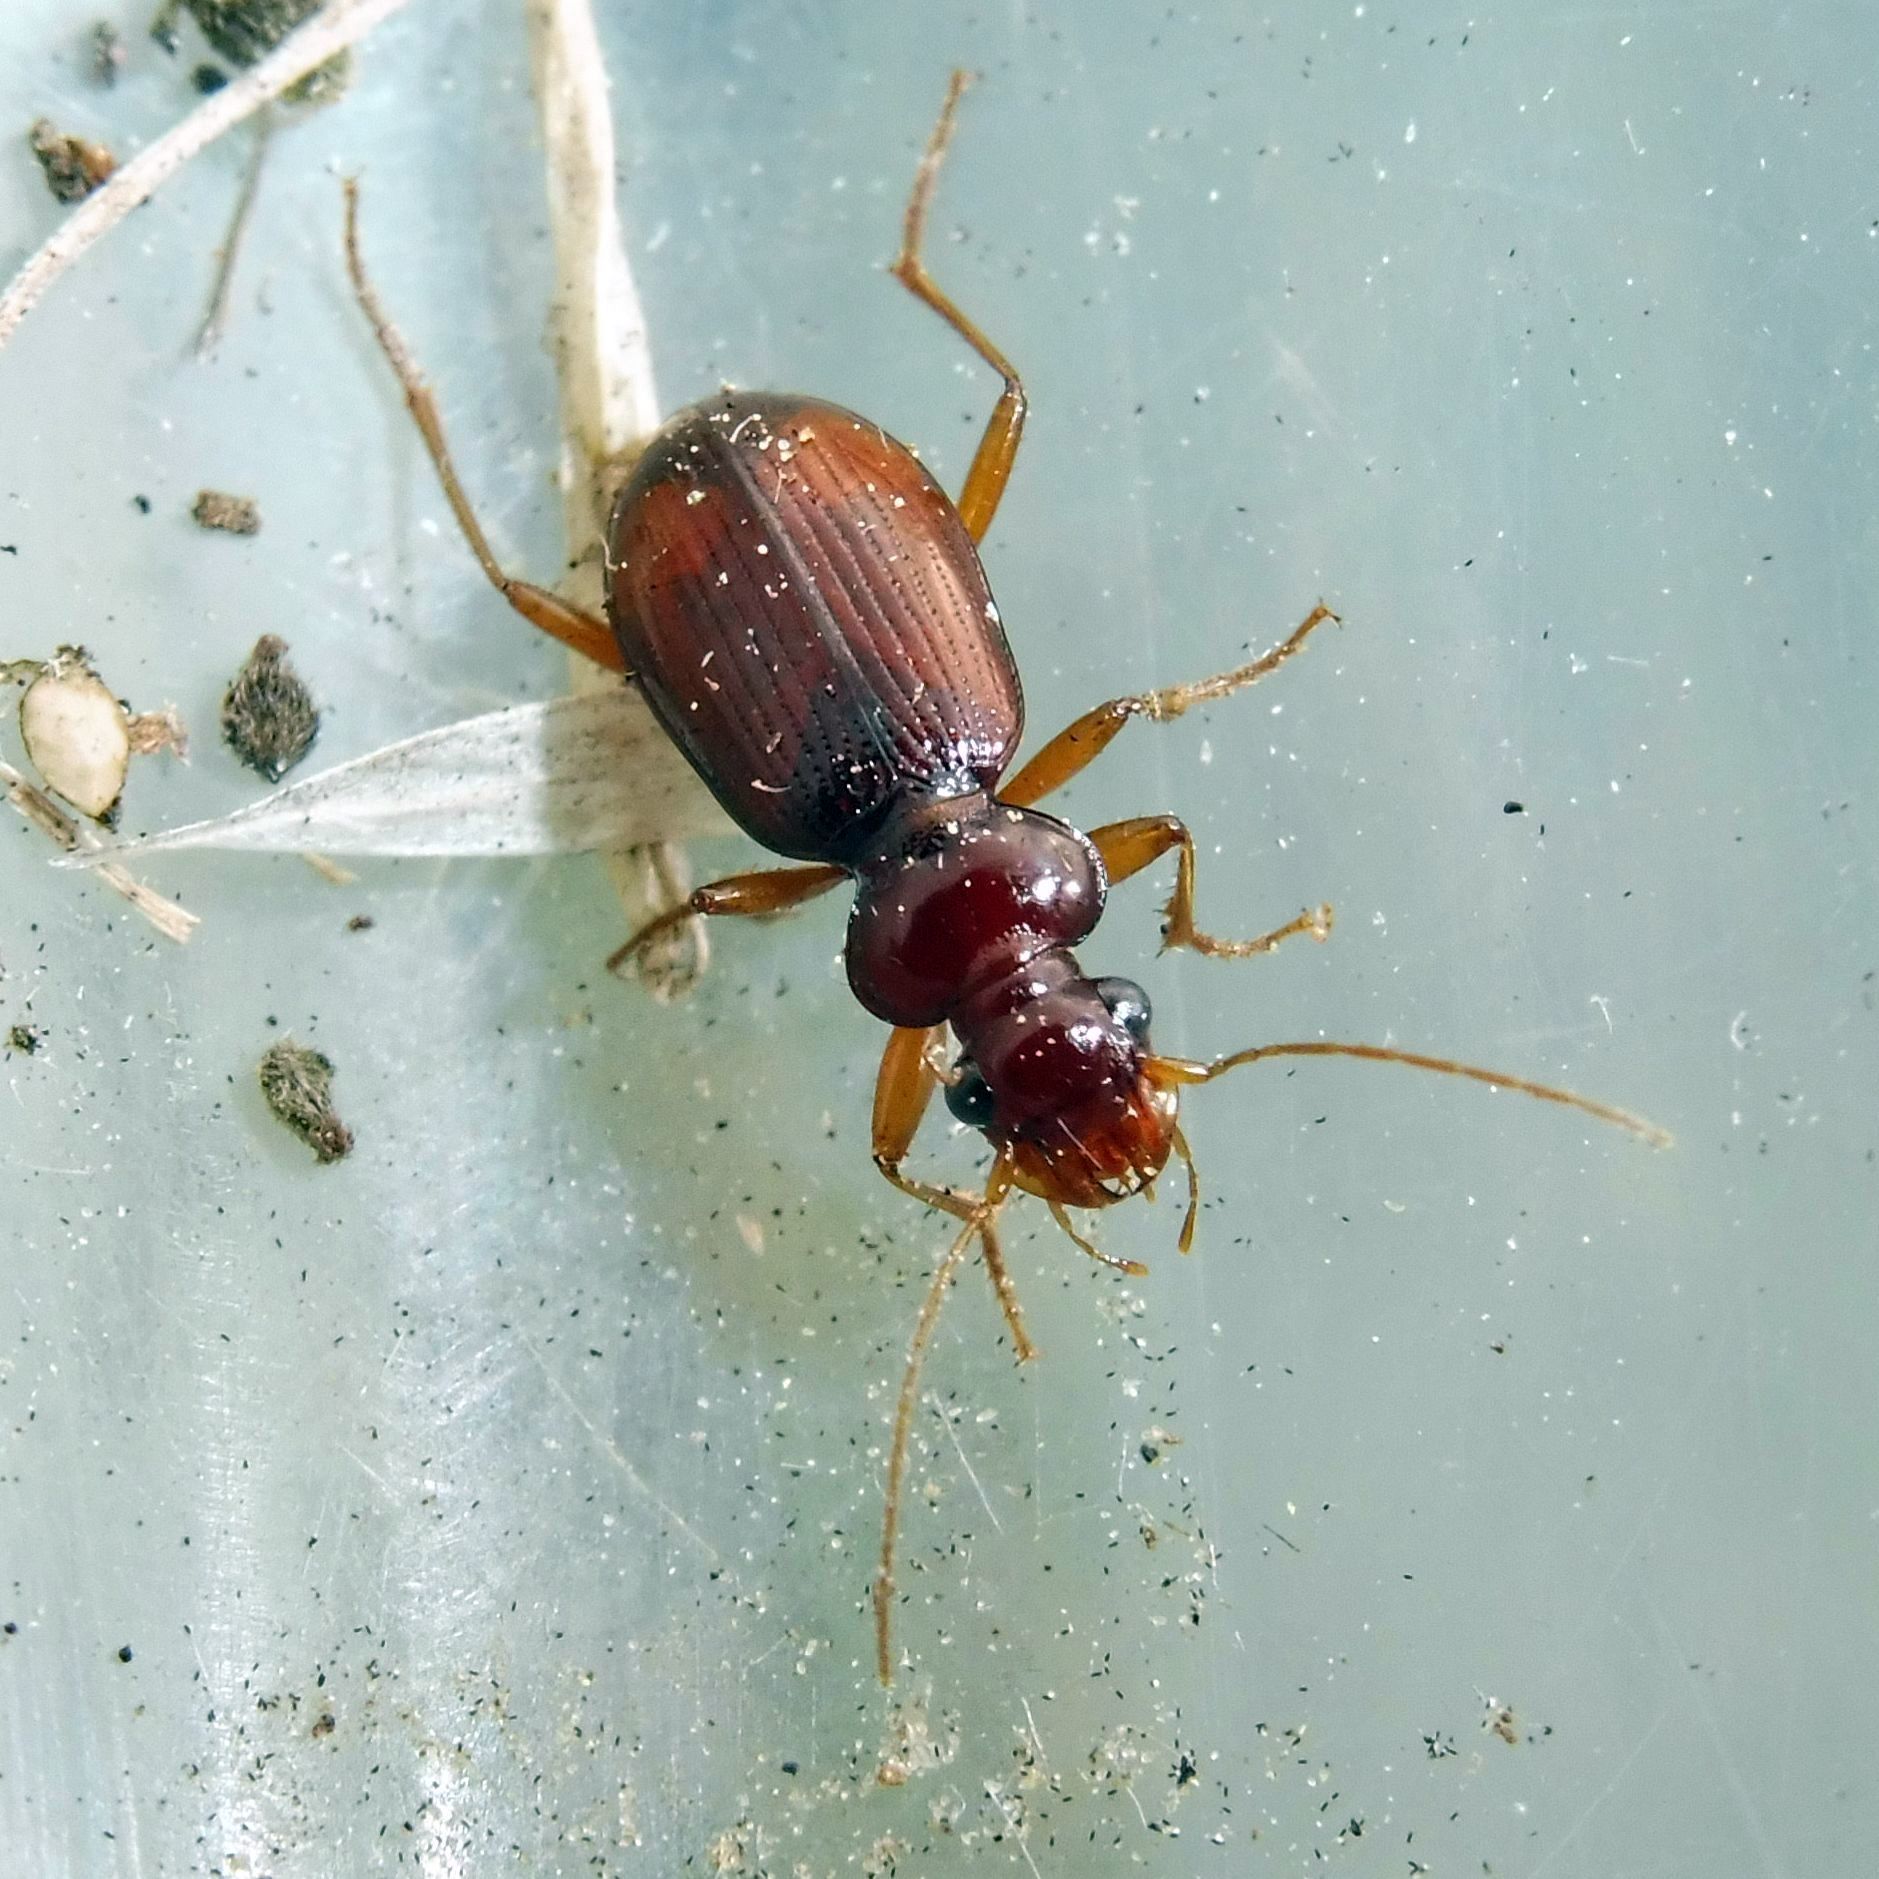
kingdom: Animalia
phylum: Arthropoda
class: Insecta
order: Coleoptera
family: Carabidae
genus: Leistus
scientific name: Leistus ferrugineus
